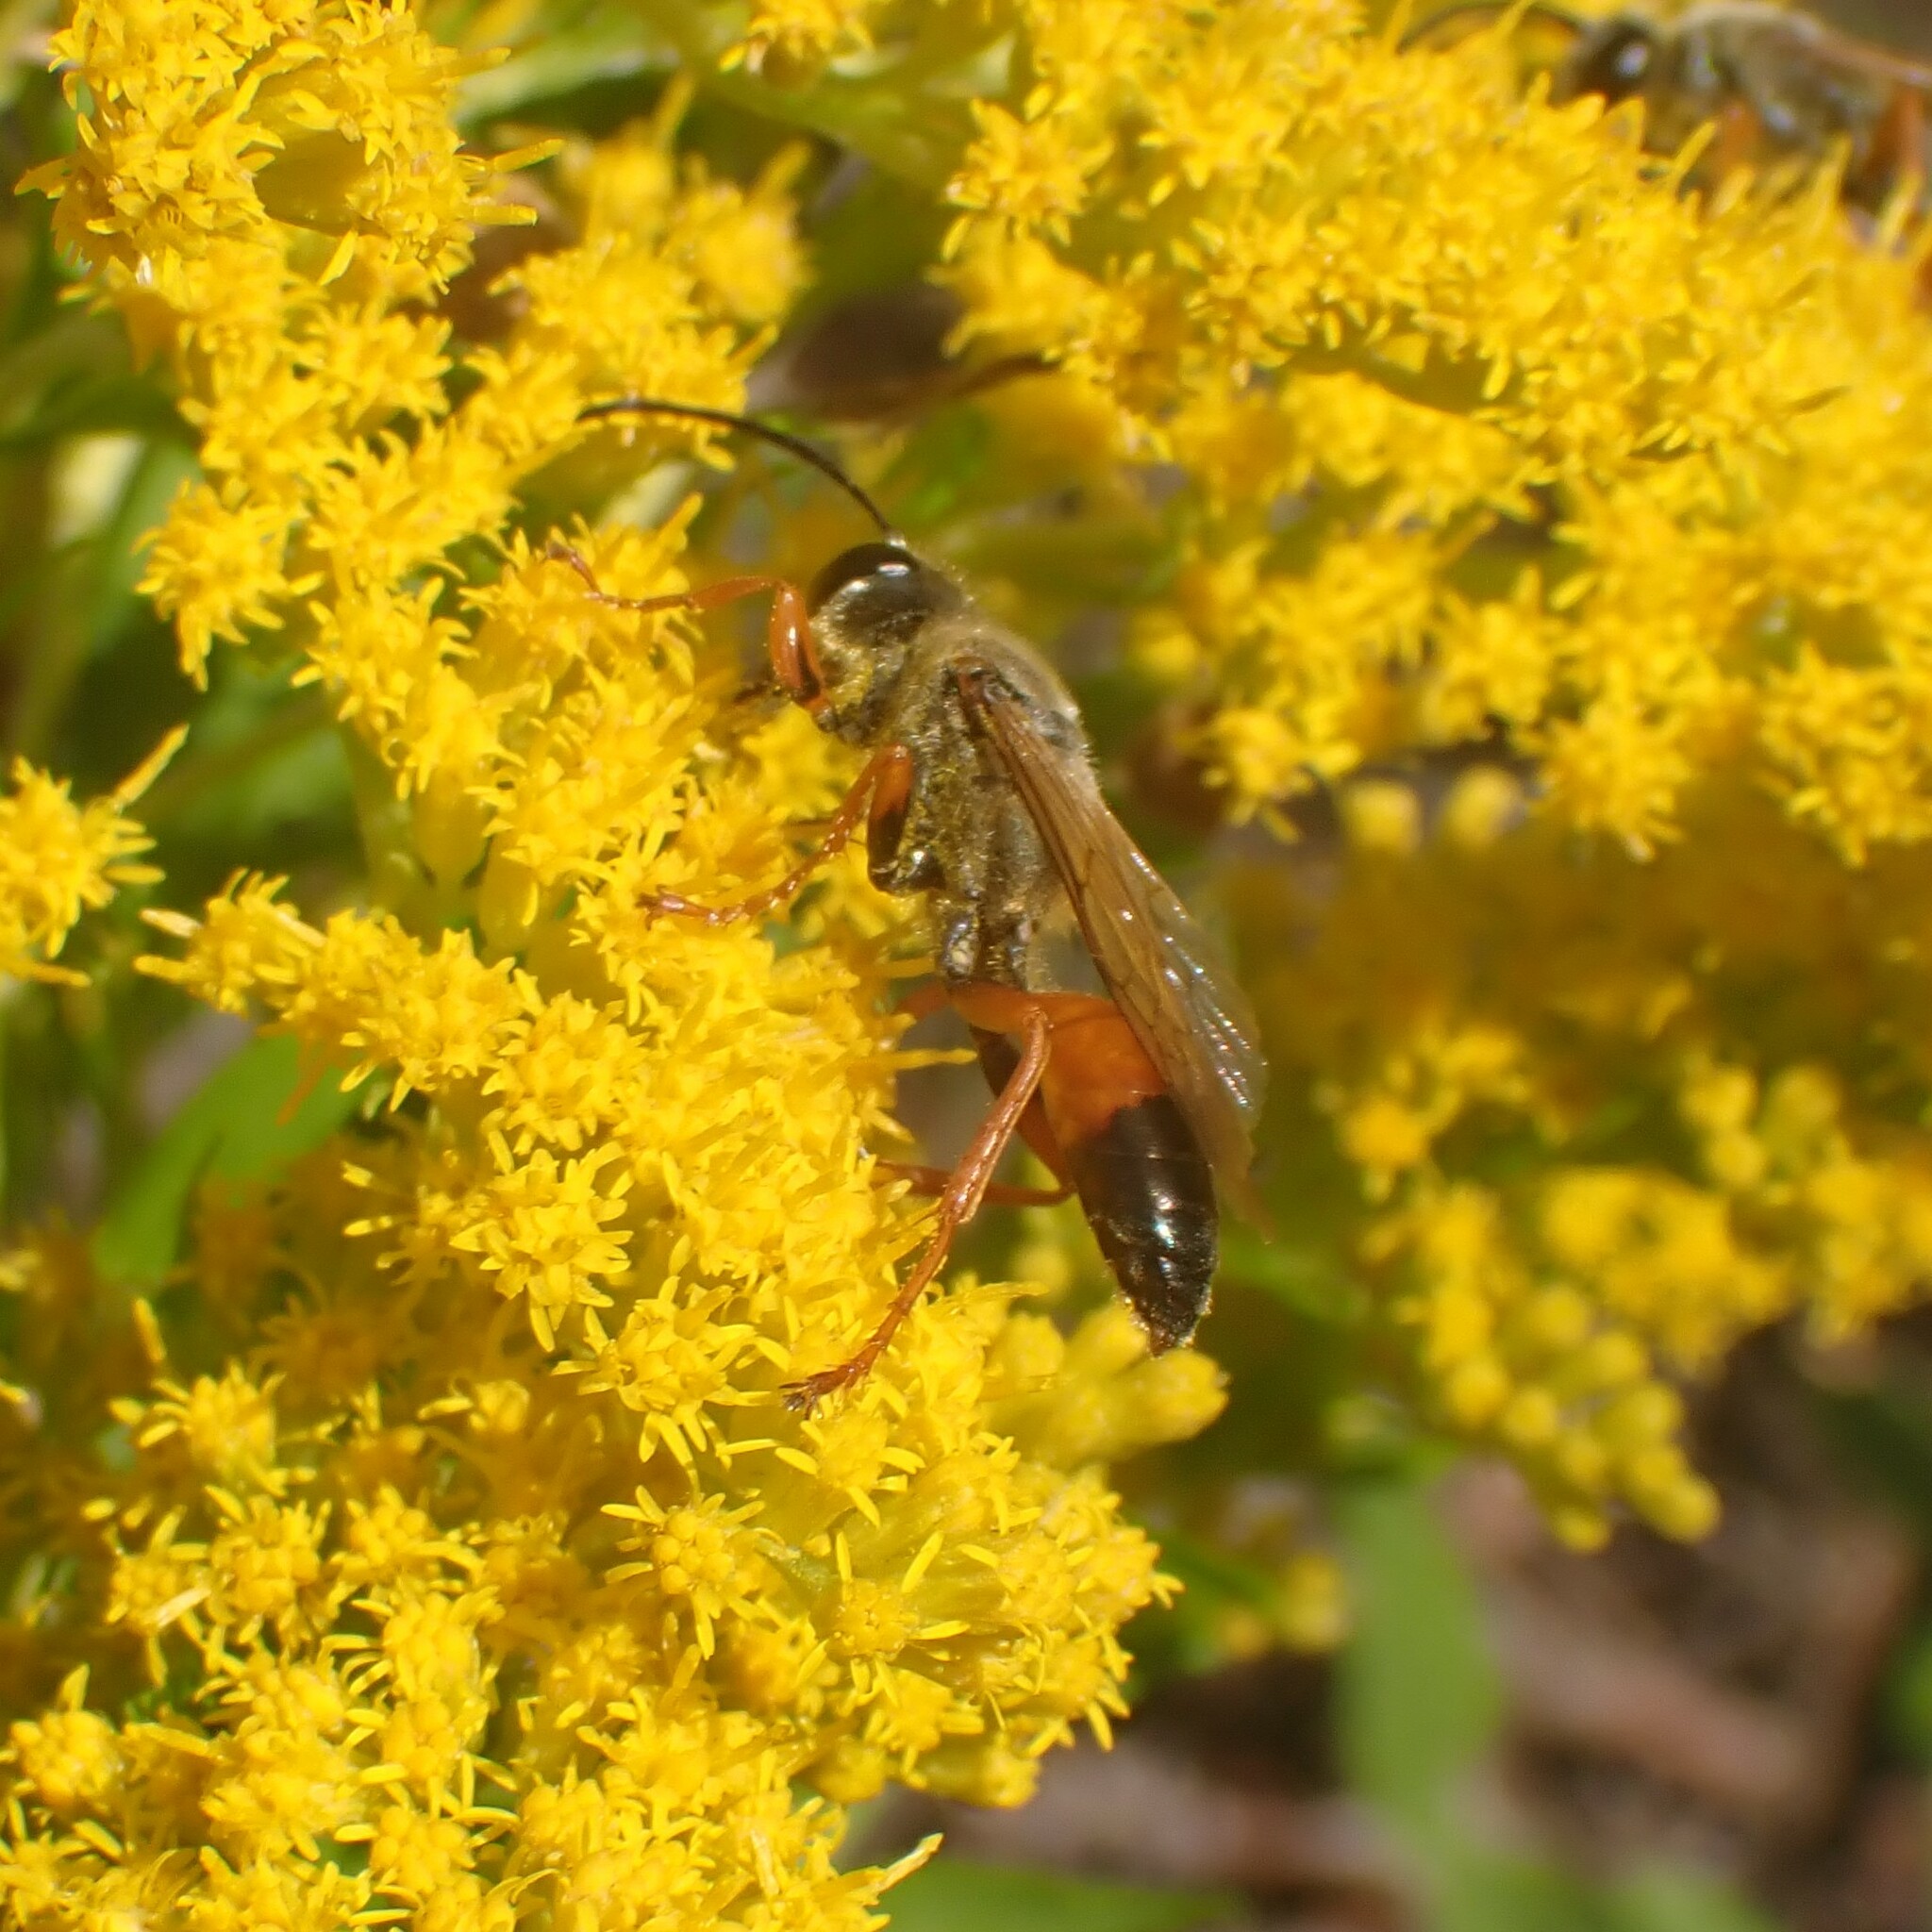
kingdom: Animalia
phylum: Arthropoda
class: Insecta
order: Hymenoptera
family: Sphecidae
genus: Sphex
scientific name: Sphex ichneumoneus
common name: Great golden digger wasp
